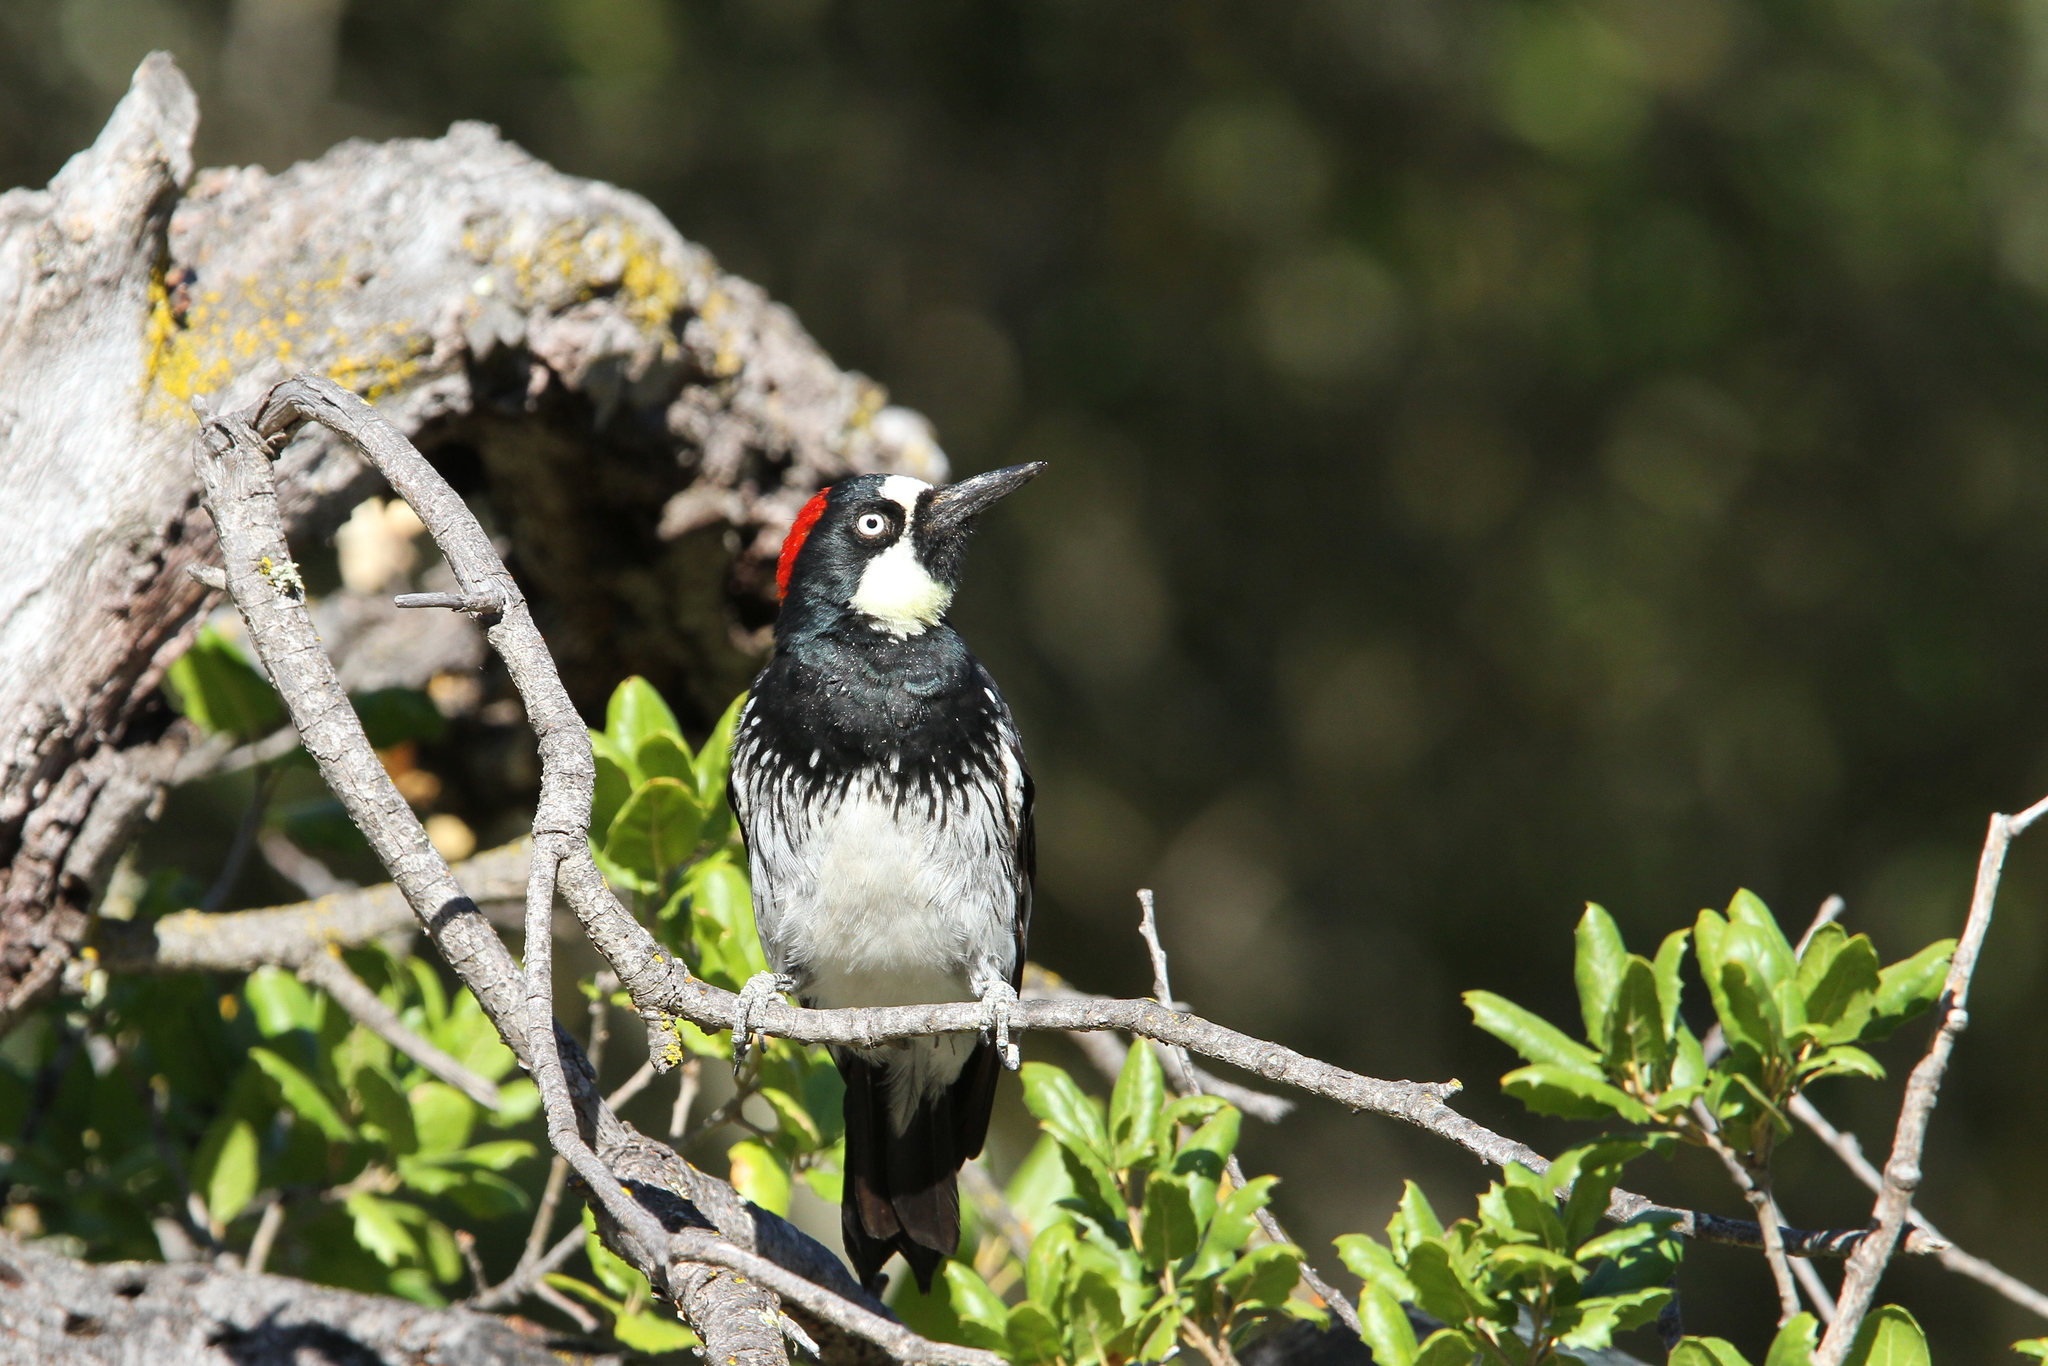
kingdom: Animalia
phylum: Chordata
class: Aves
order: Piciformes
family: Picidae
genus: Melanerpes
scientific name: Melanerpes formicivorus
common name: Acorn woodpecker
